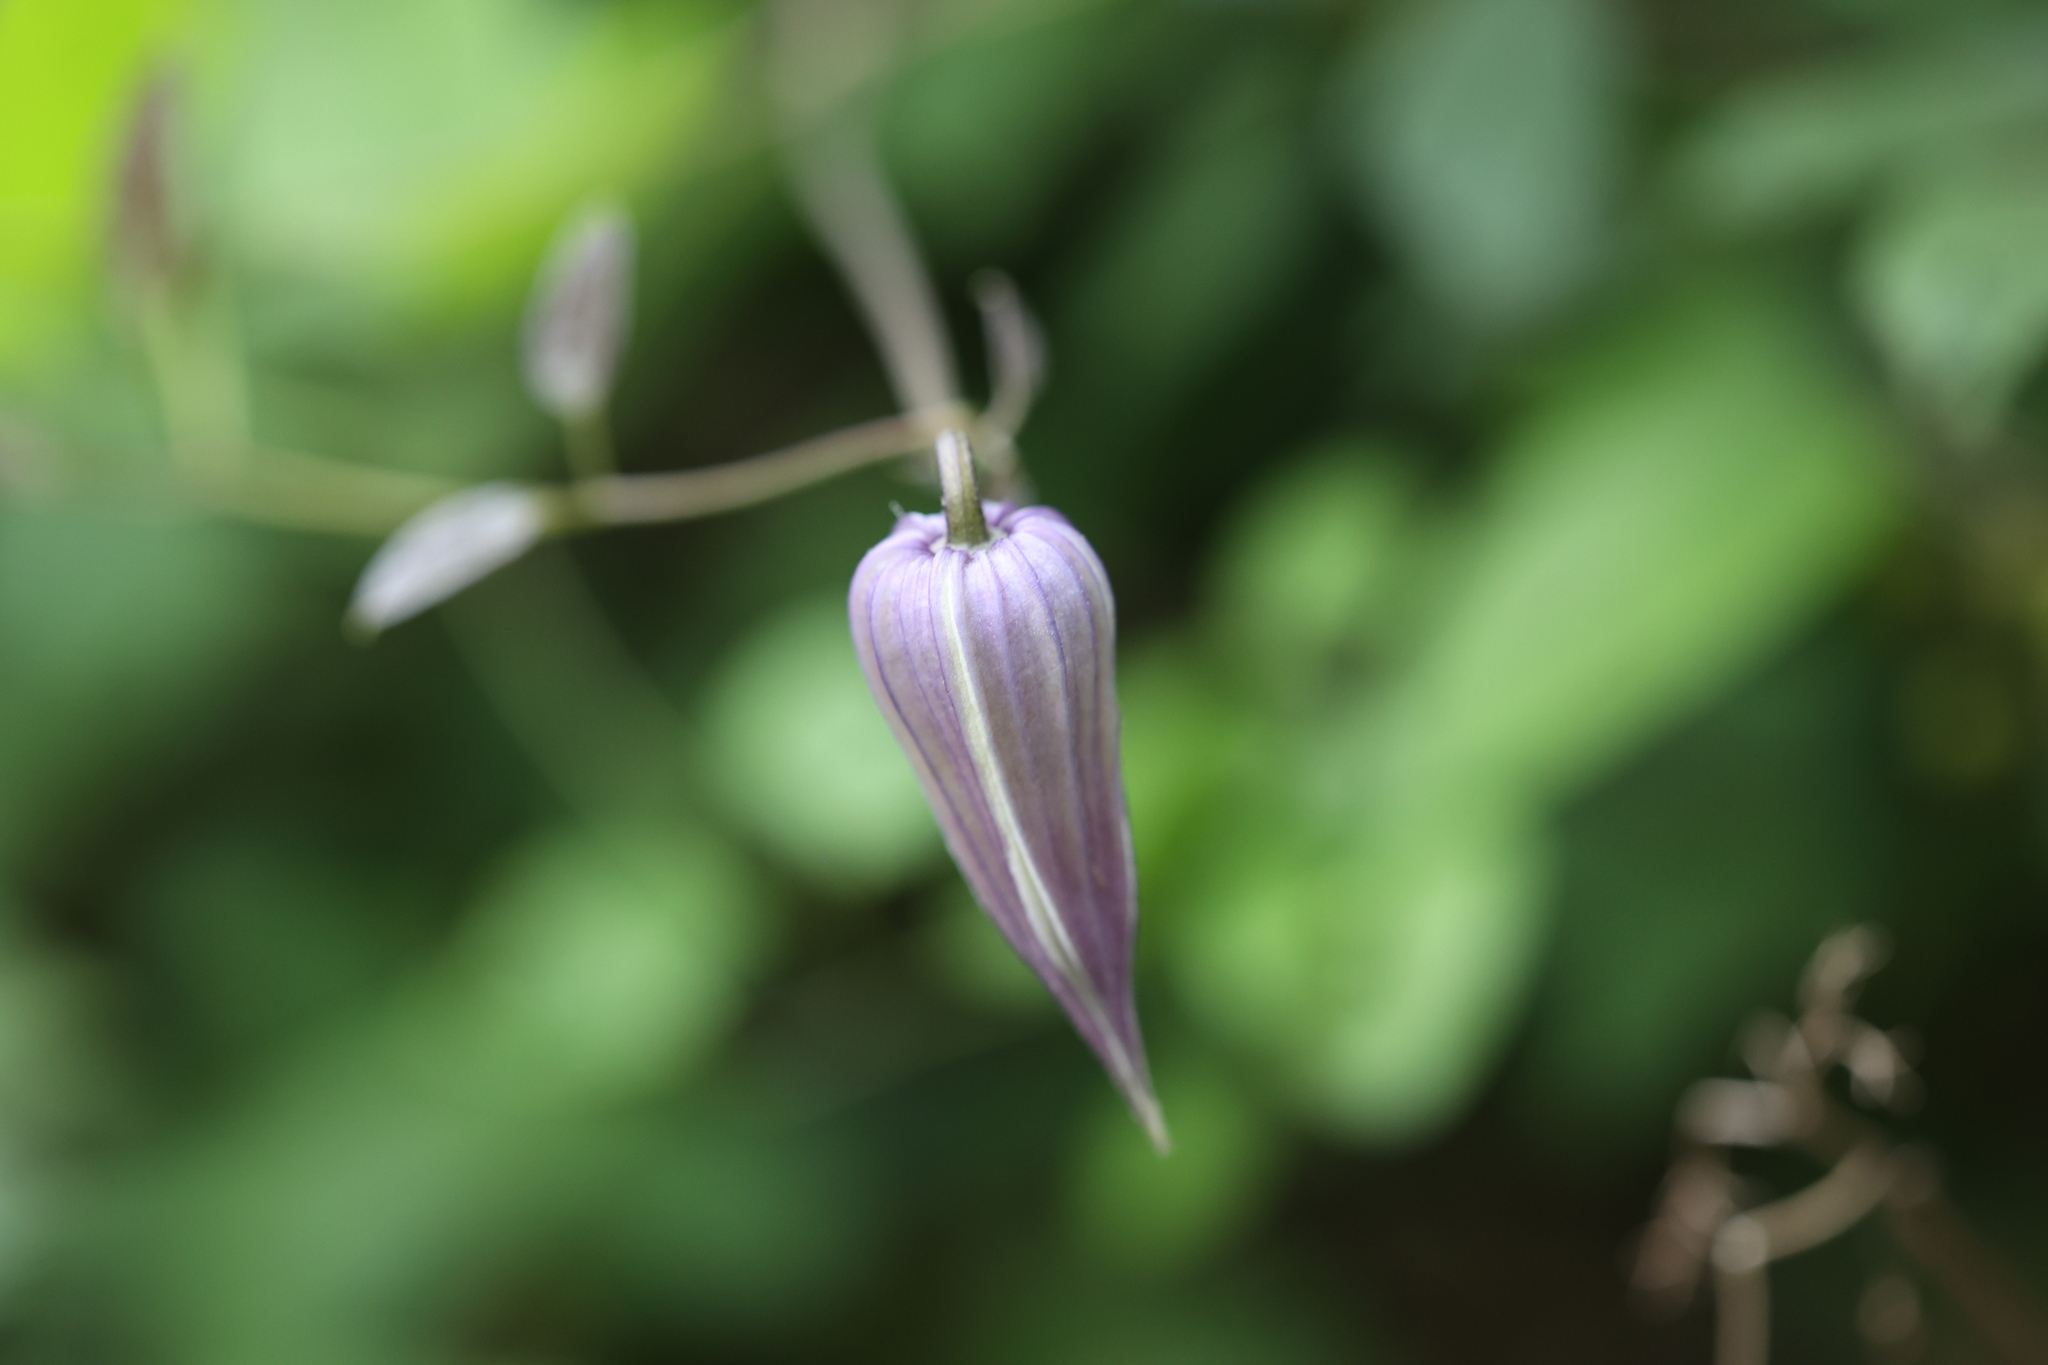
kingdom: Plantae
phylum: Tracheophyta
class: Magnoliopsida
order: Ranunculales
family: Ranunculaceae
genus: Clematis
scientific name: Clematis crispa
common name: Curly clematis
